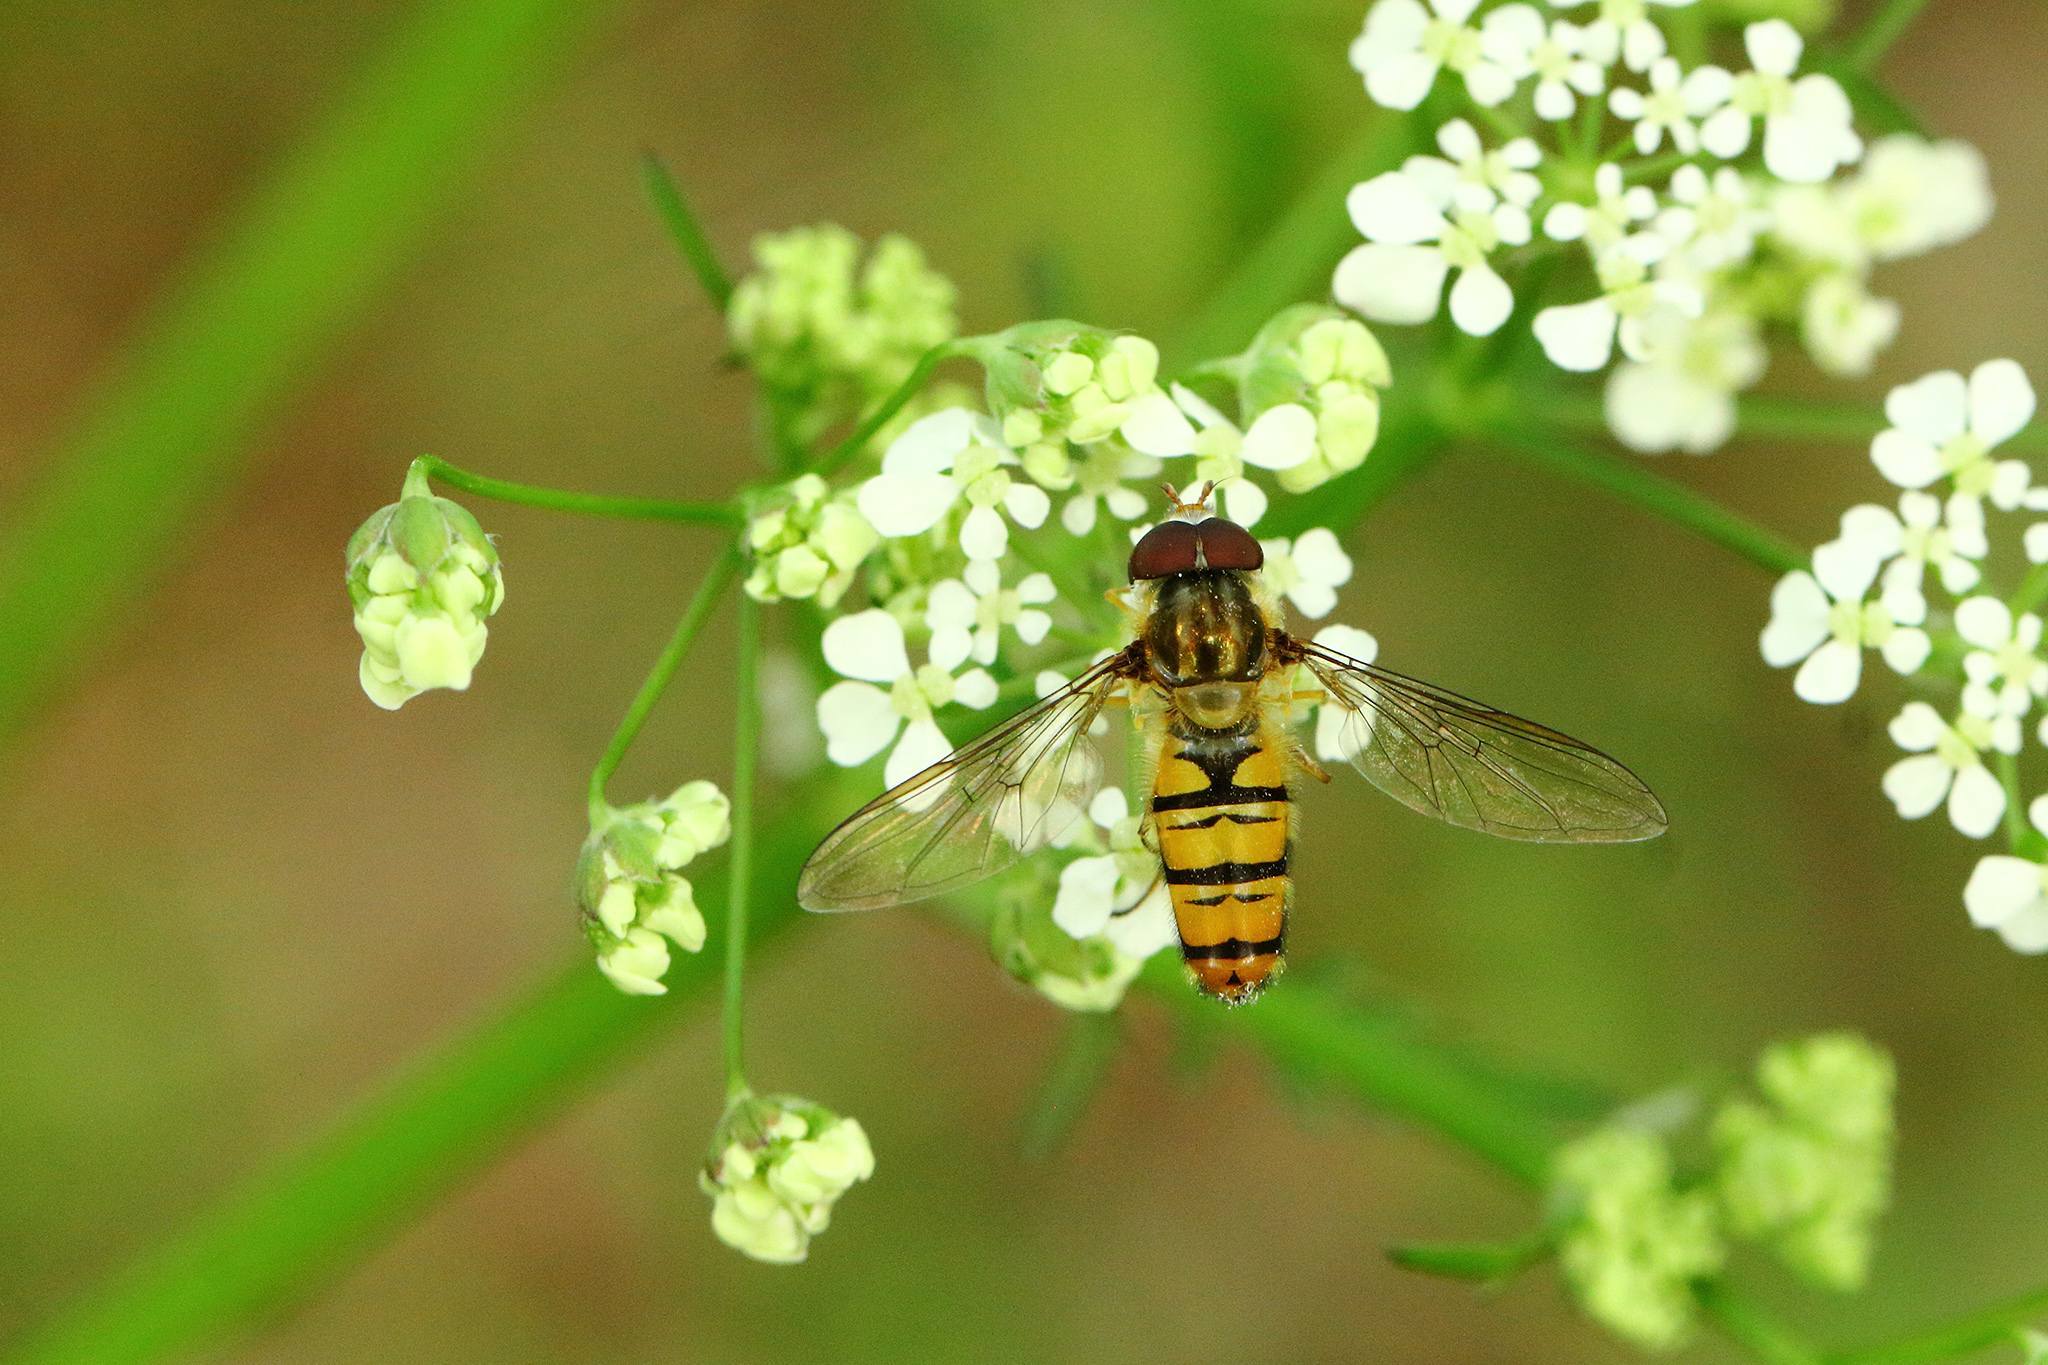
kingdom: Animalia
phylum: Arthropoda
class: Insecta
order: Diptera
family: Syrphidae
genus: Episyrphus
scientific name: Episyrphus balteatus
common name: Marmalade hoverfly
